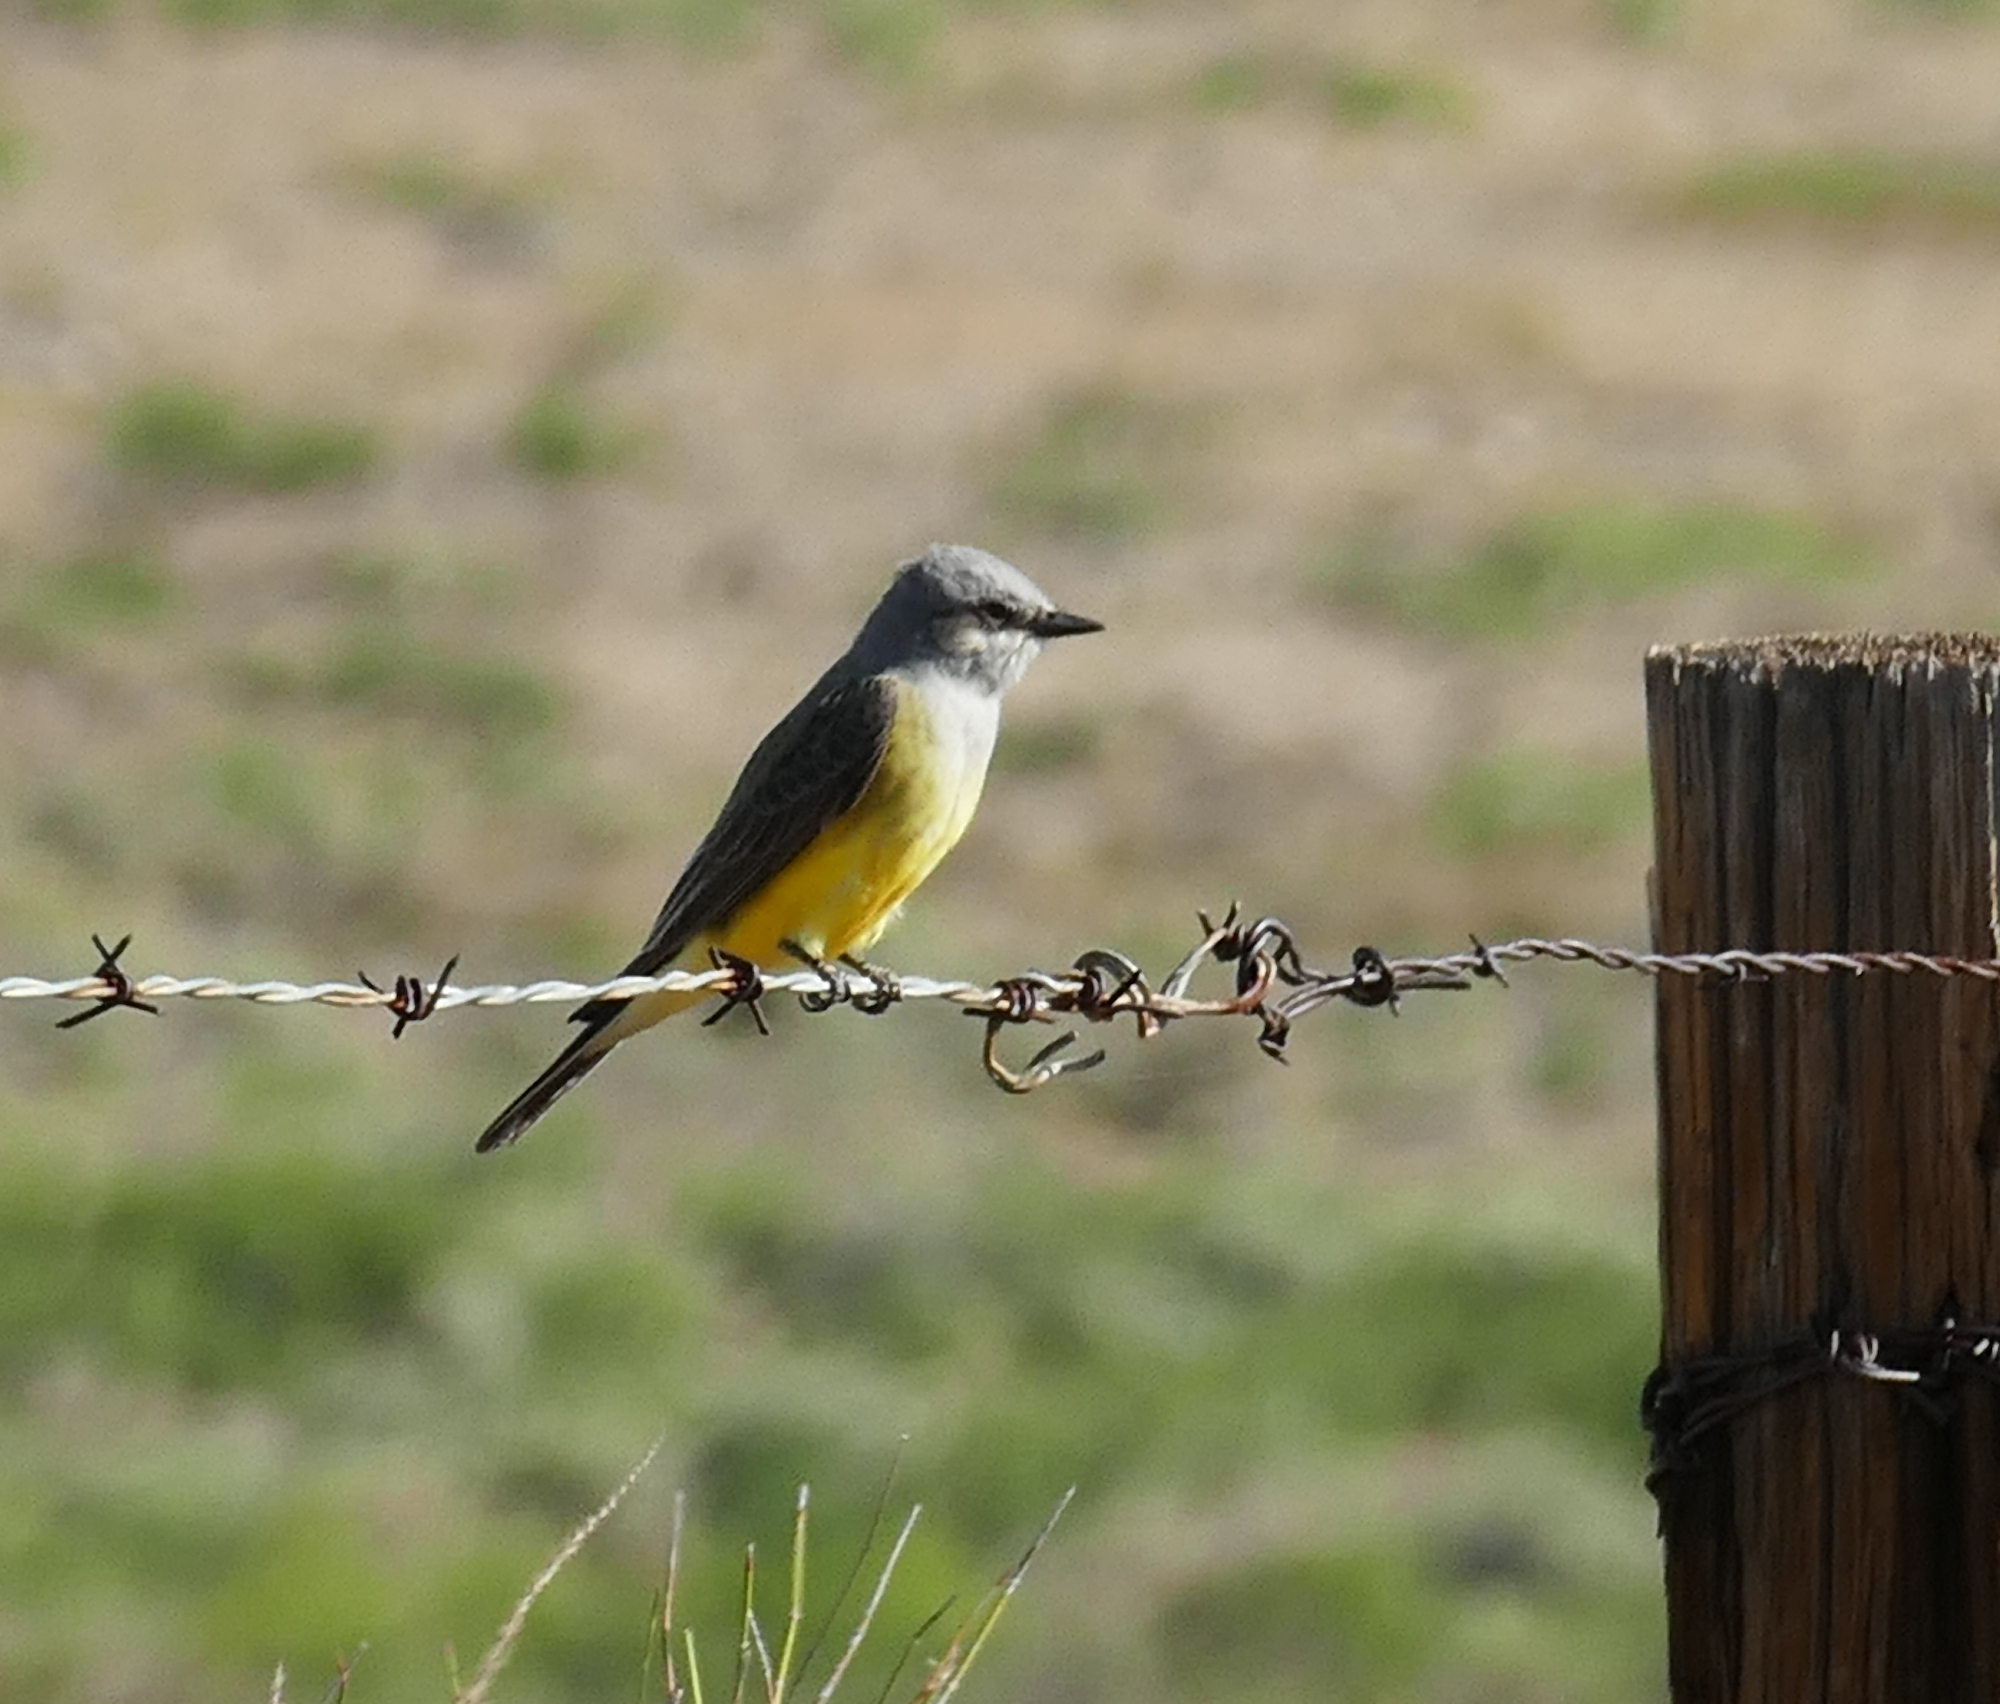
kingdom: Animalia
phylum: Chordata
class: Aves
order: Passeriformes
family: Tyrannidae
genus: Tyrannus
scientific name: Tyrannus verticalis
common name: Western kingbird
